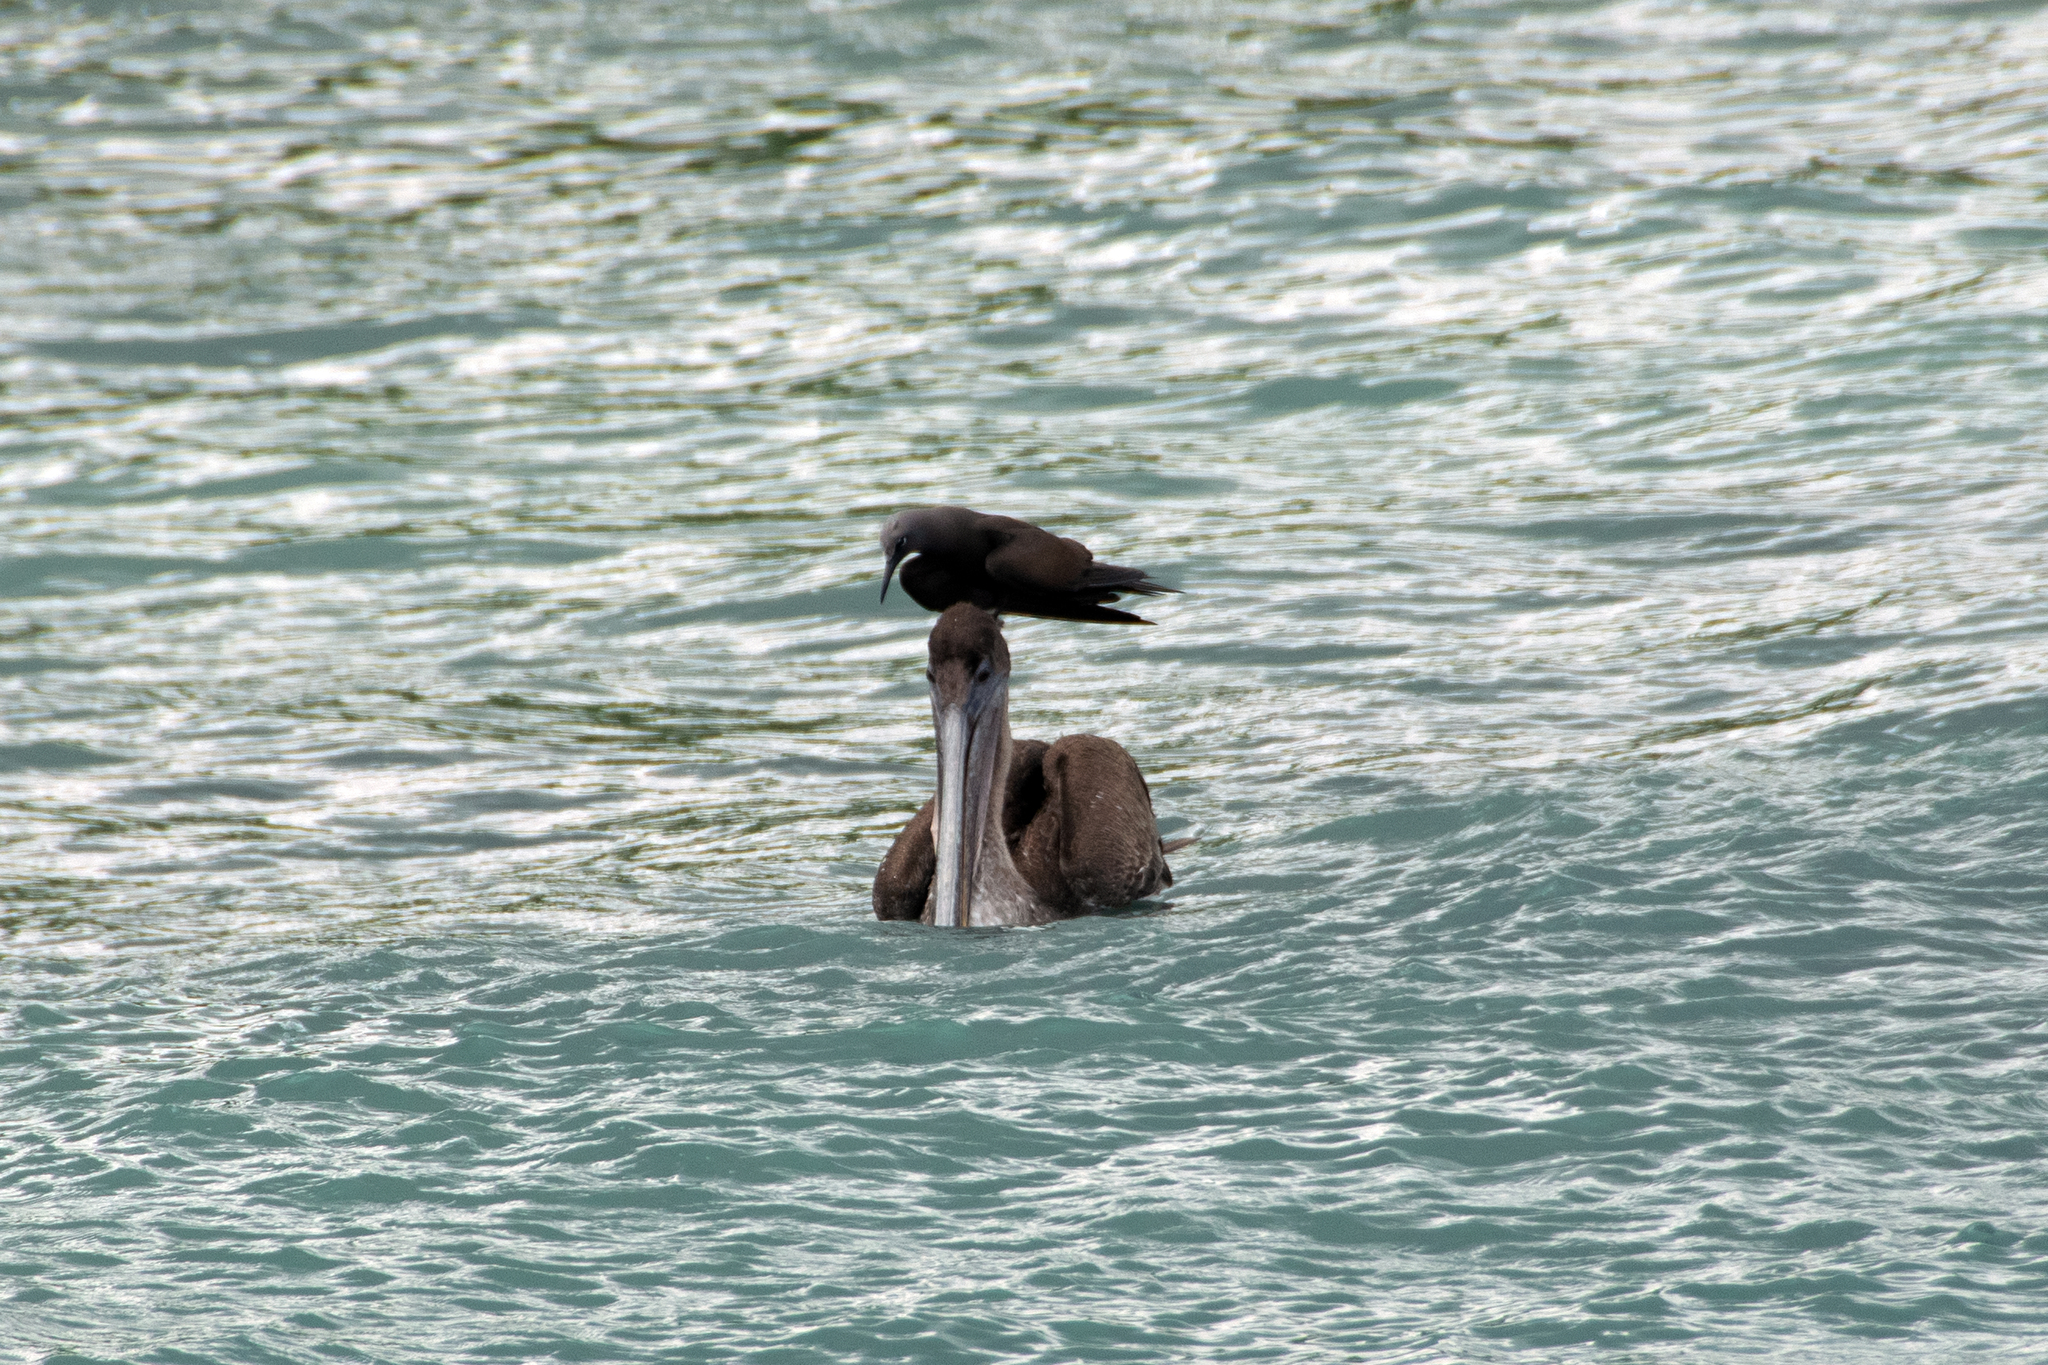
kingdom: Animalia
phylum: Chordata
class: Aves
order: Charadriiformes
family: Laridae
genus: Anous
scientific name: Anous stolidus
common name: Brown noddy
